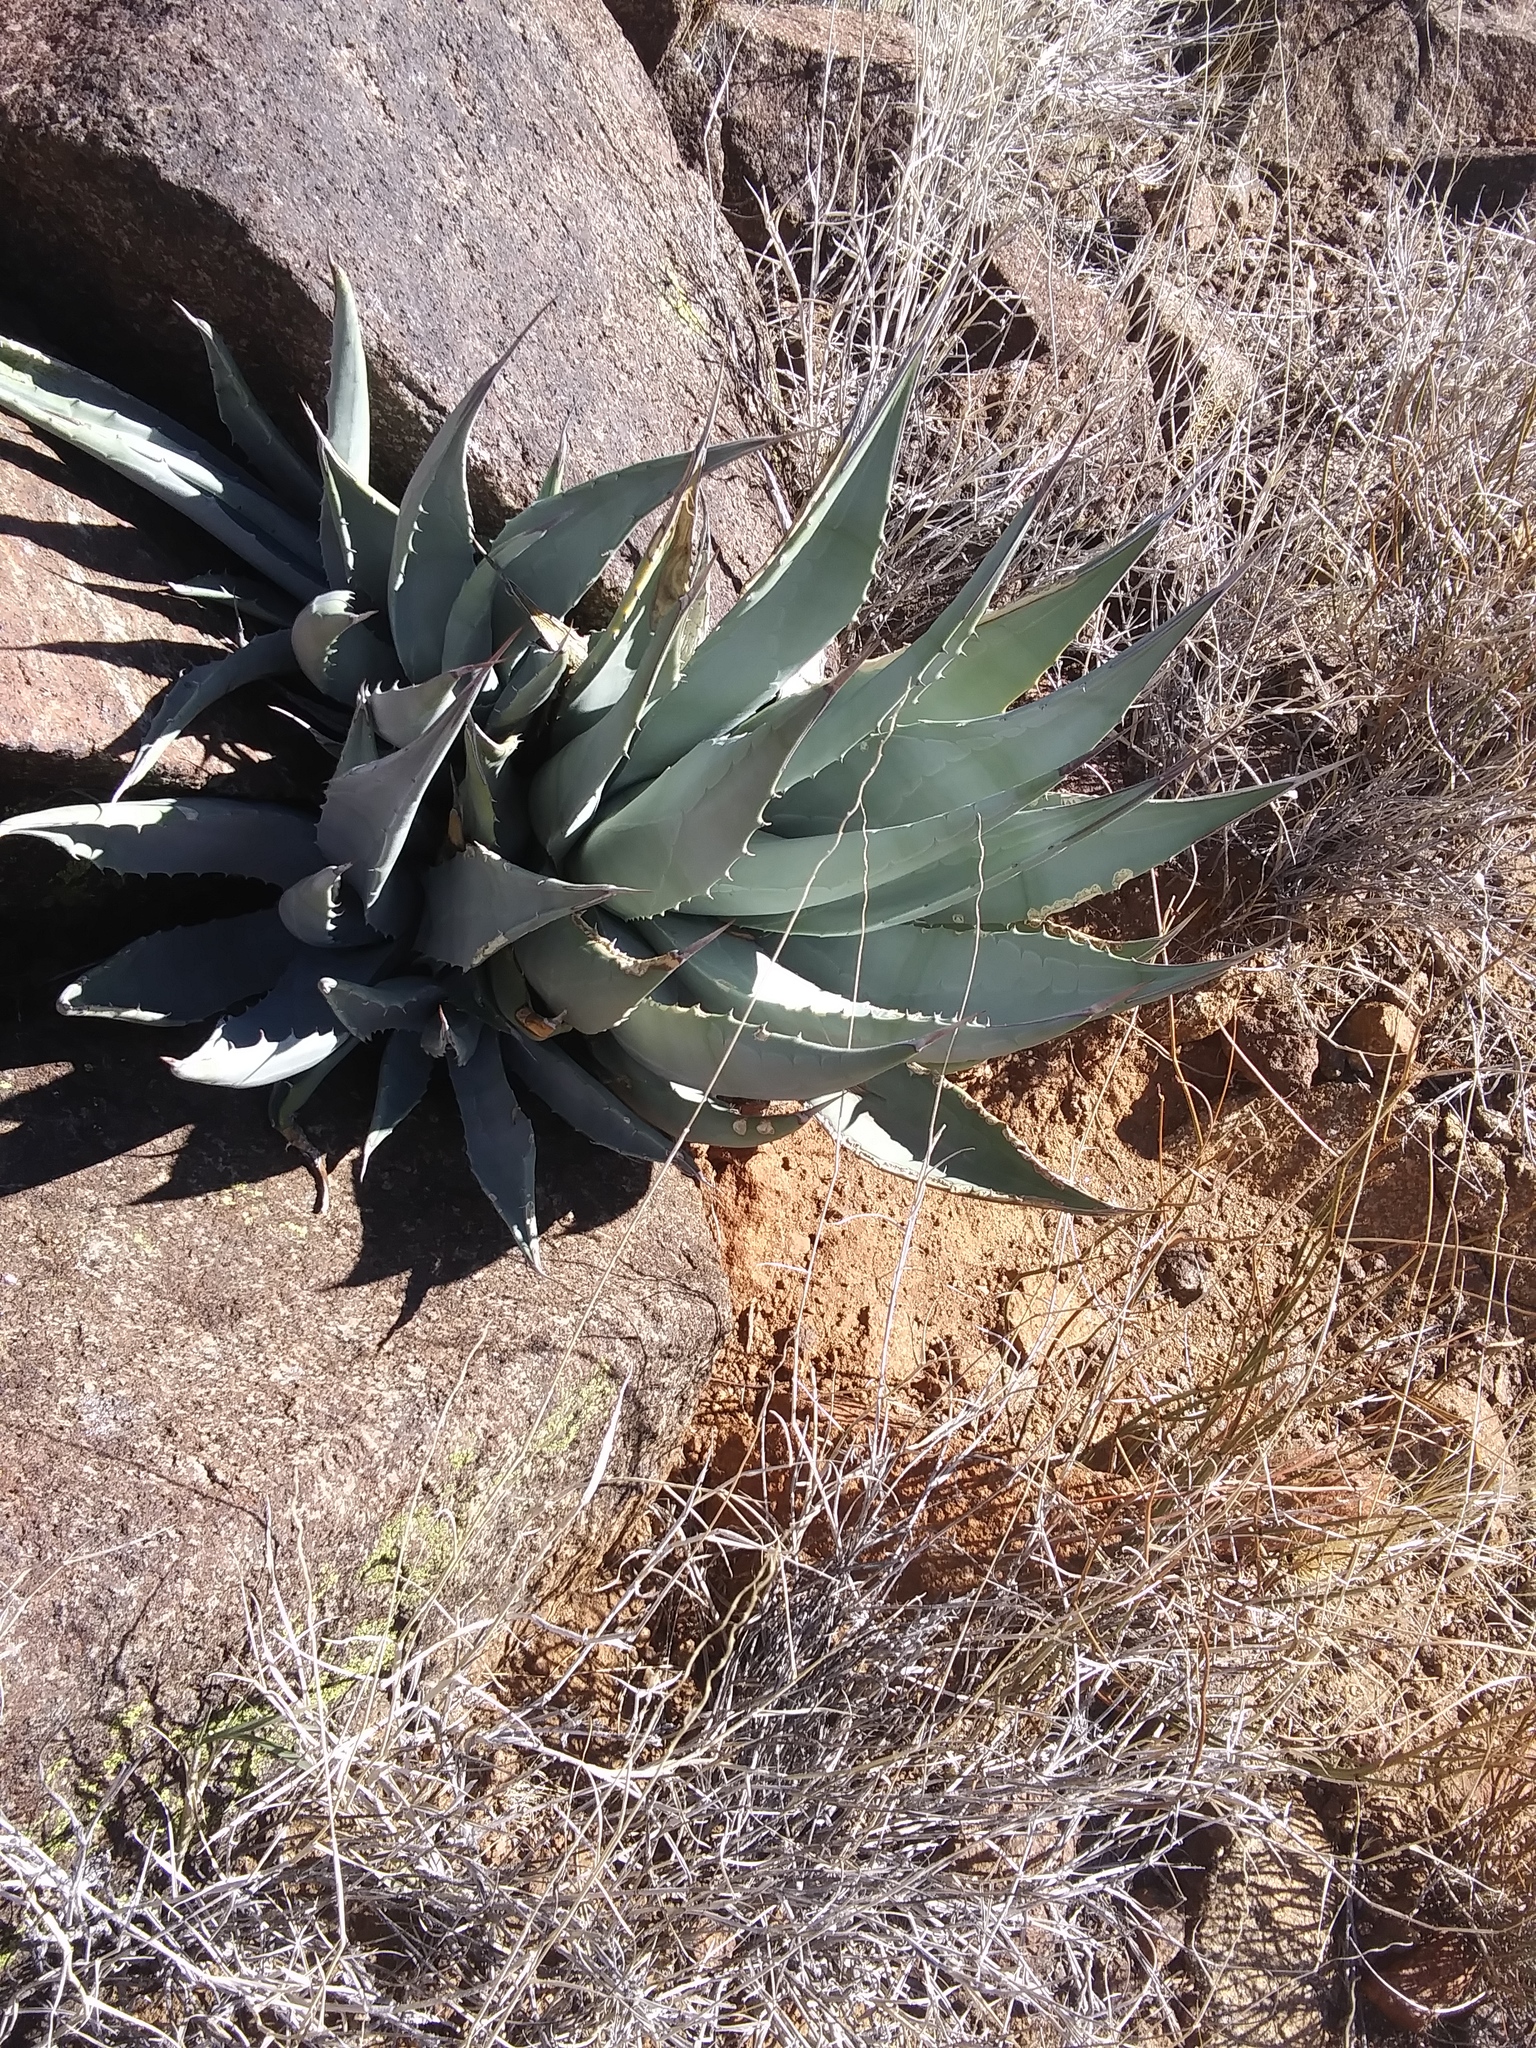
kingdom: Plantae
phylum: Tracheophyta
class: Liliopsida
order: Asparagales
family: Asparagaceae
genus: Agave
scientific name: Agave deserti
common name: Desert agave
